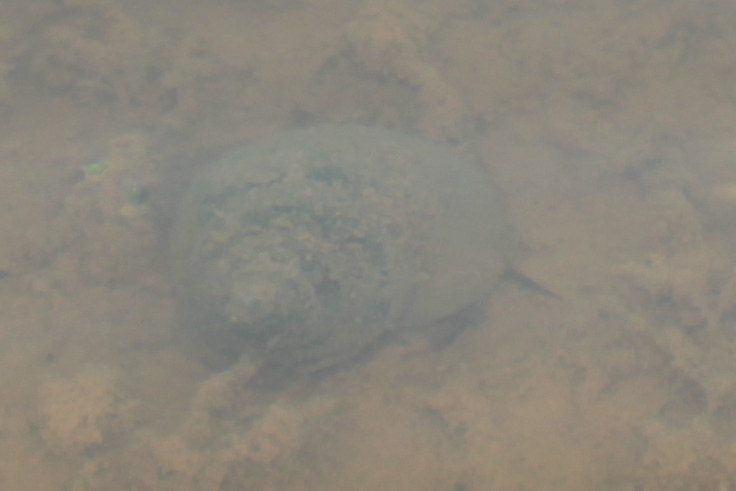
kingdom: Animalia
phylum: Mollusca
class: Gastropoda
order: Architaenioglossa
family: Viviparidae
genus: Cipangopaludina
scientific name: Cipangopaludina chinensis
